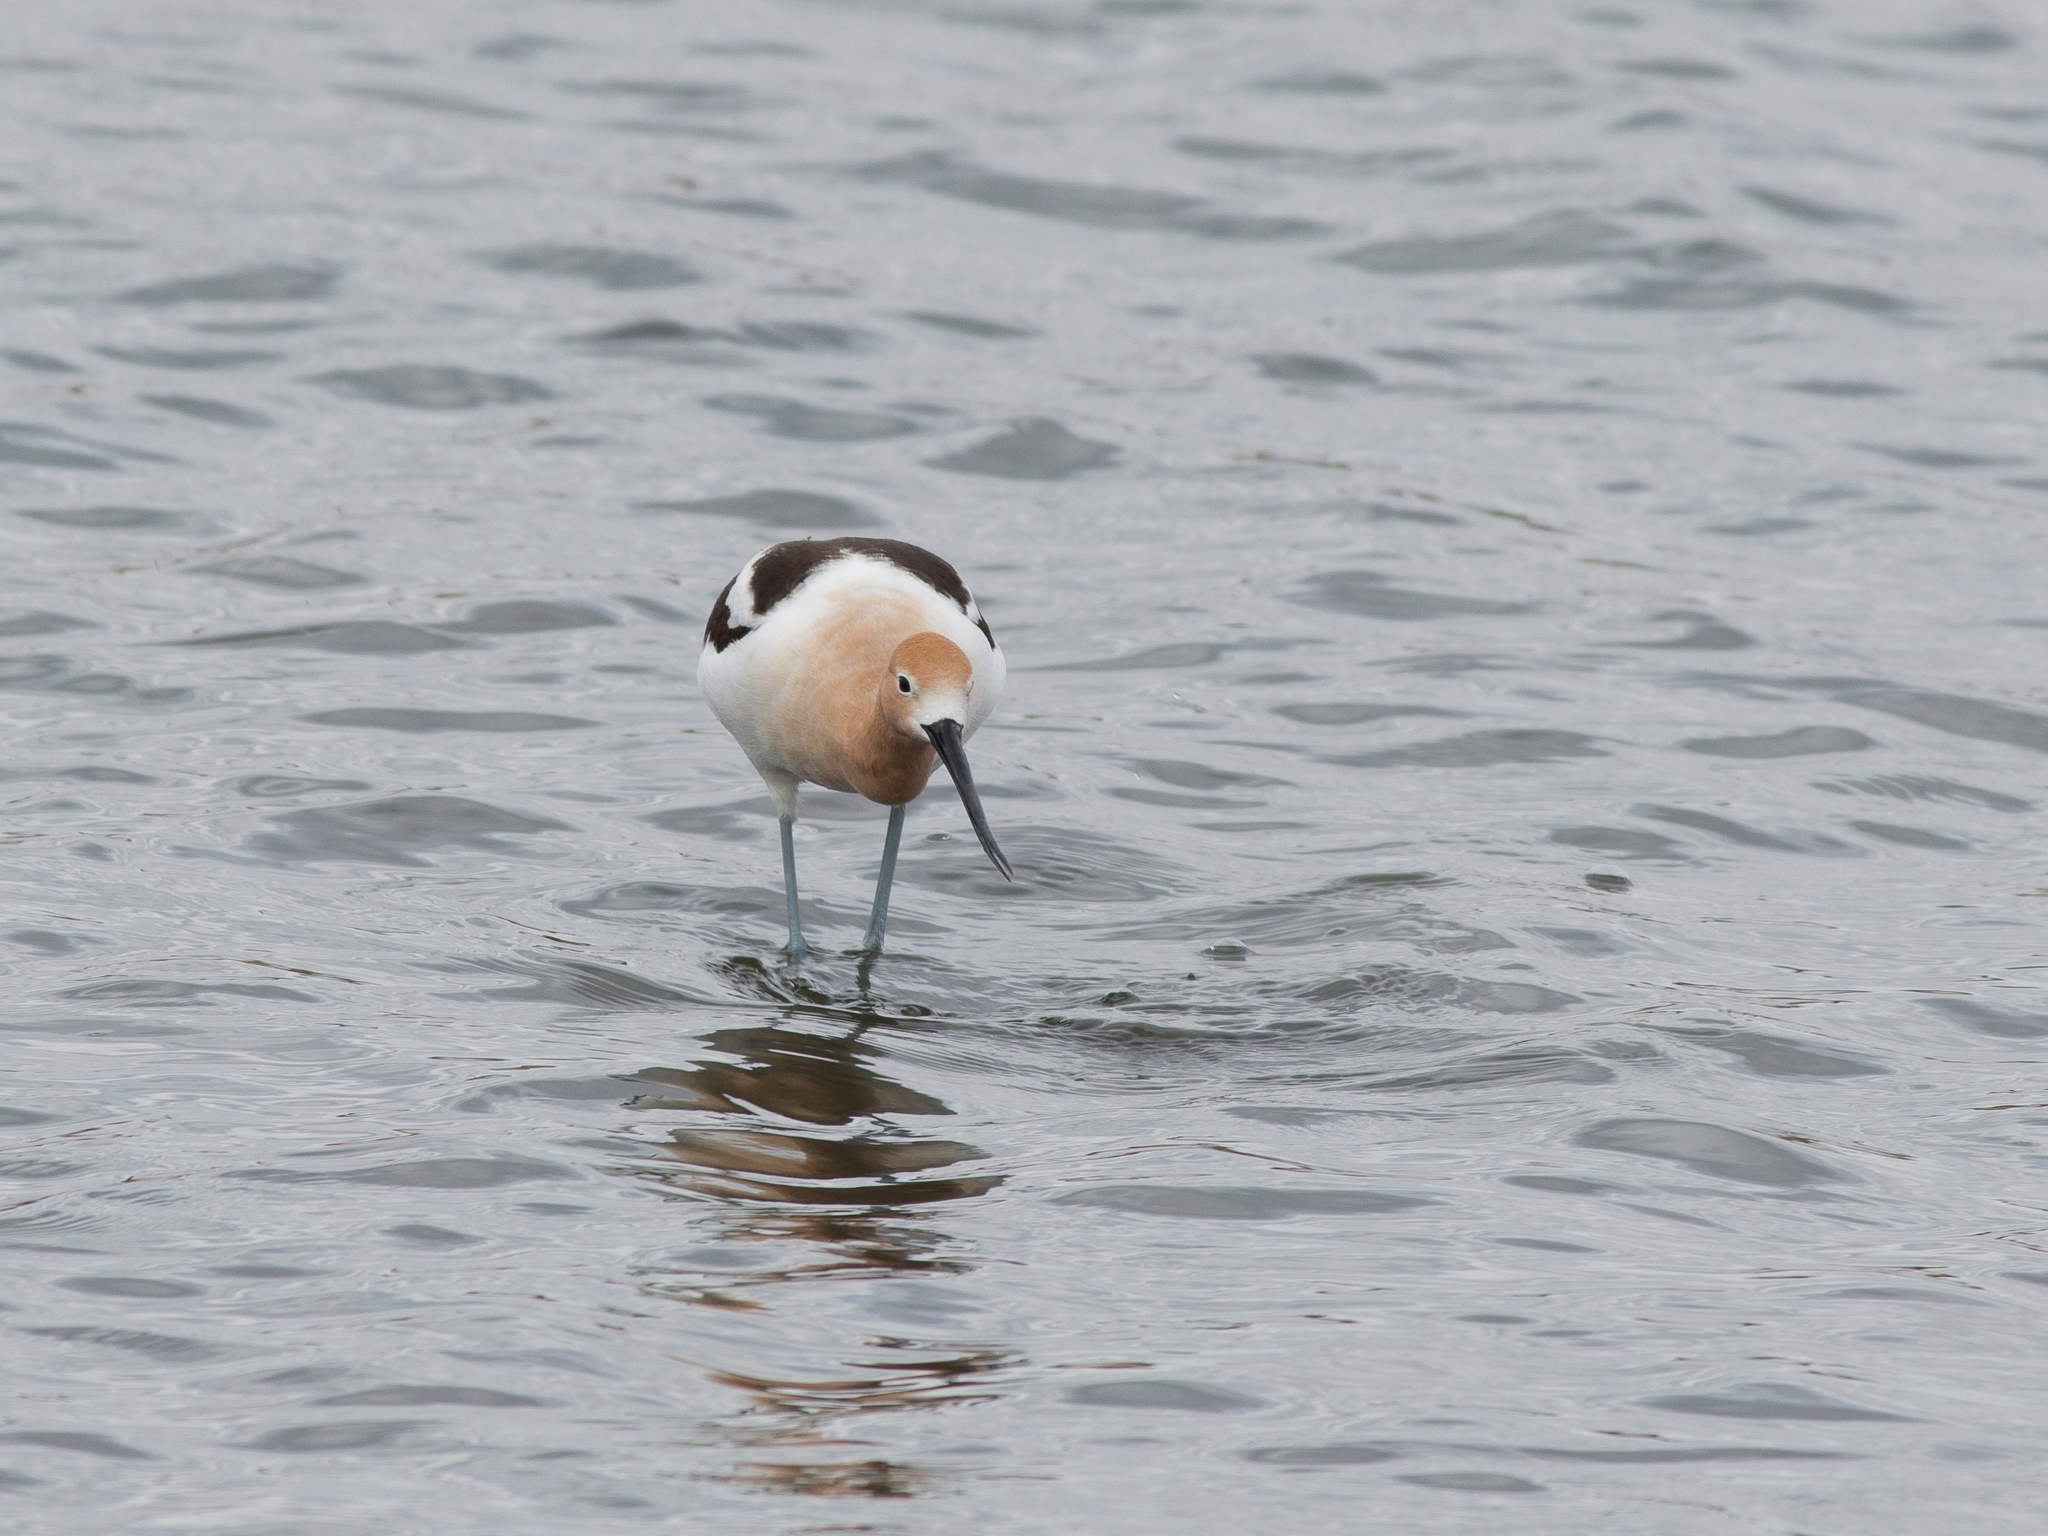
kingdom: Animalia
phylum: Chordata
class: Aves
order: Charadriiformes
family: Recurvirostridae
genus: Recurvirostra
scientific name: Recurvirostra americana
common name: American avocet
